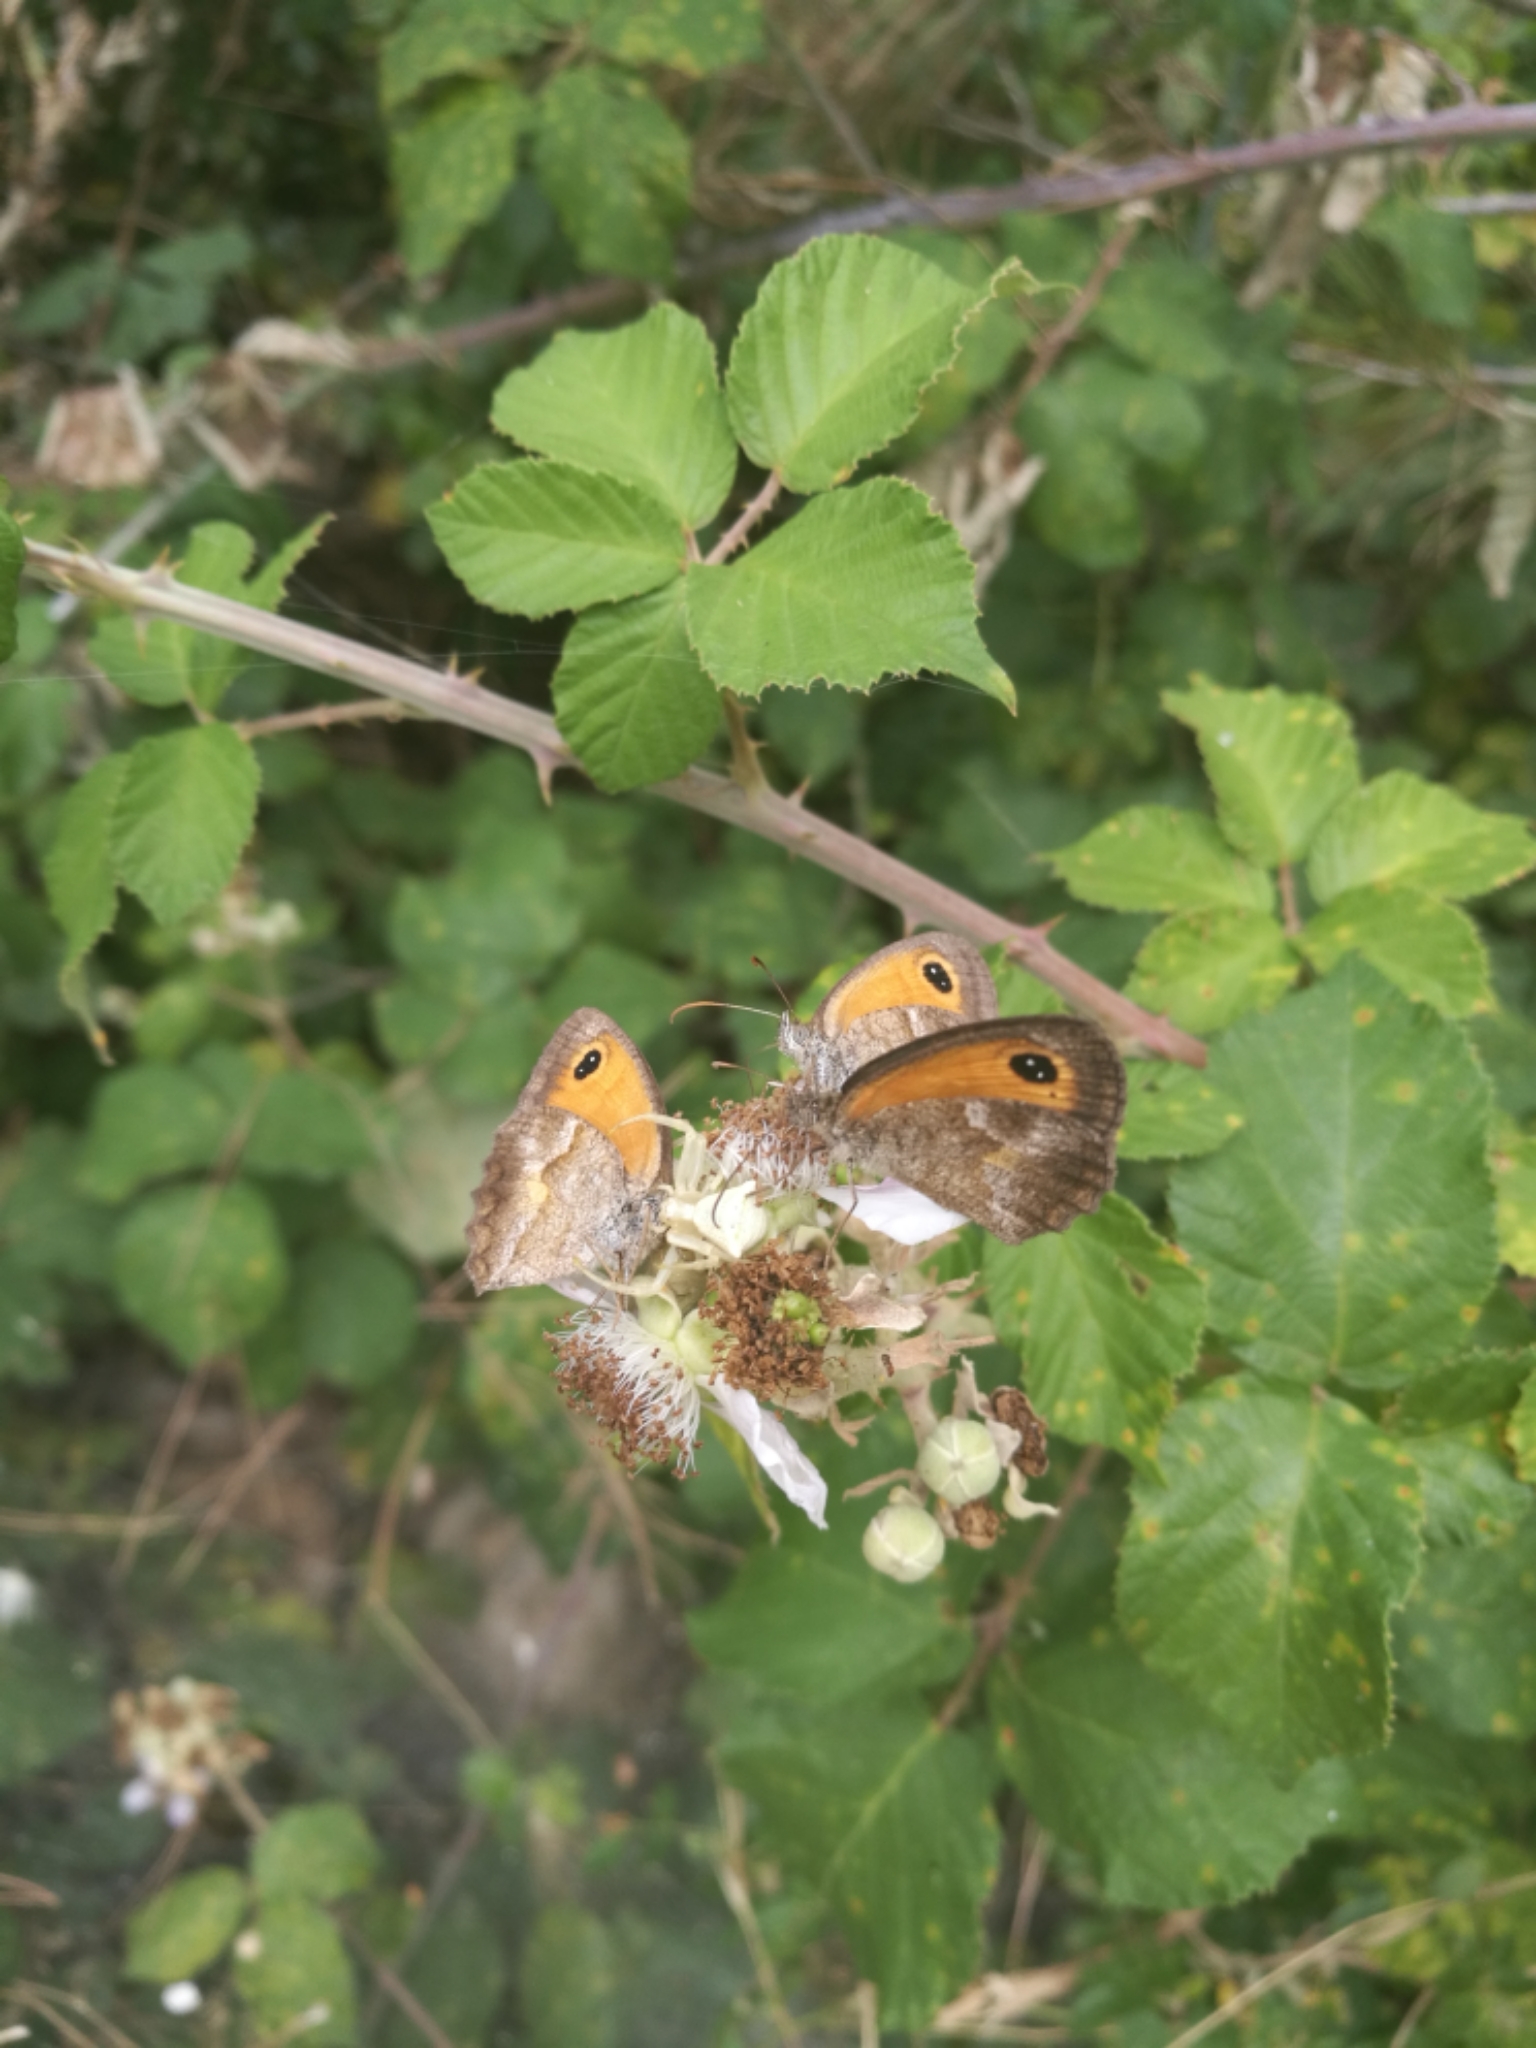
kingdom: Animalia
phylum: Arthropoda
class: Arachnida
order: Araneae
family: Thomisidae
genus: Thomisus
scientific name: Thomisus onustus
